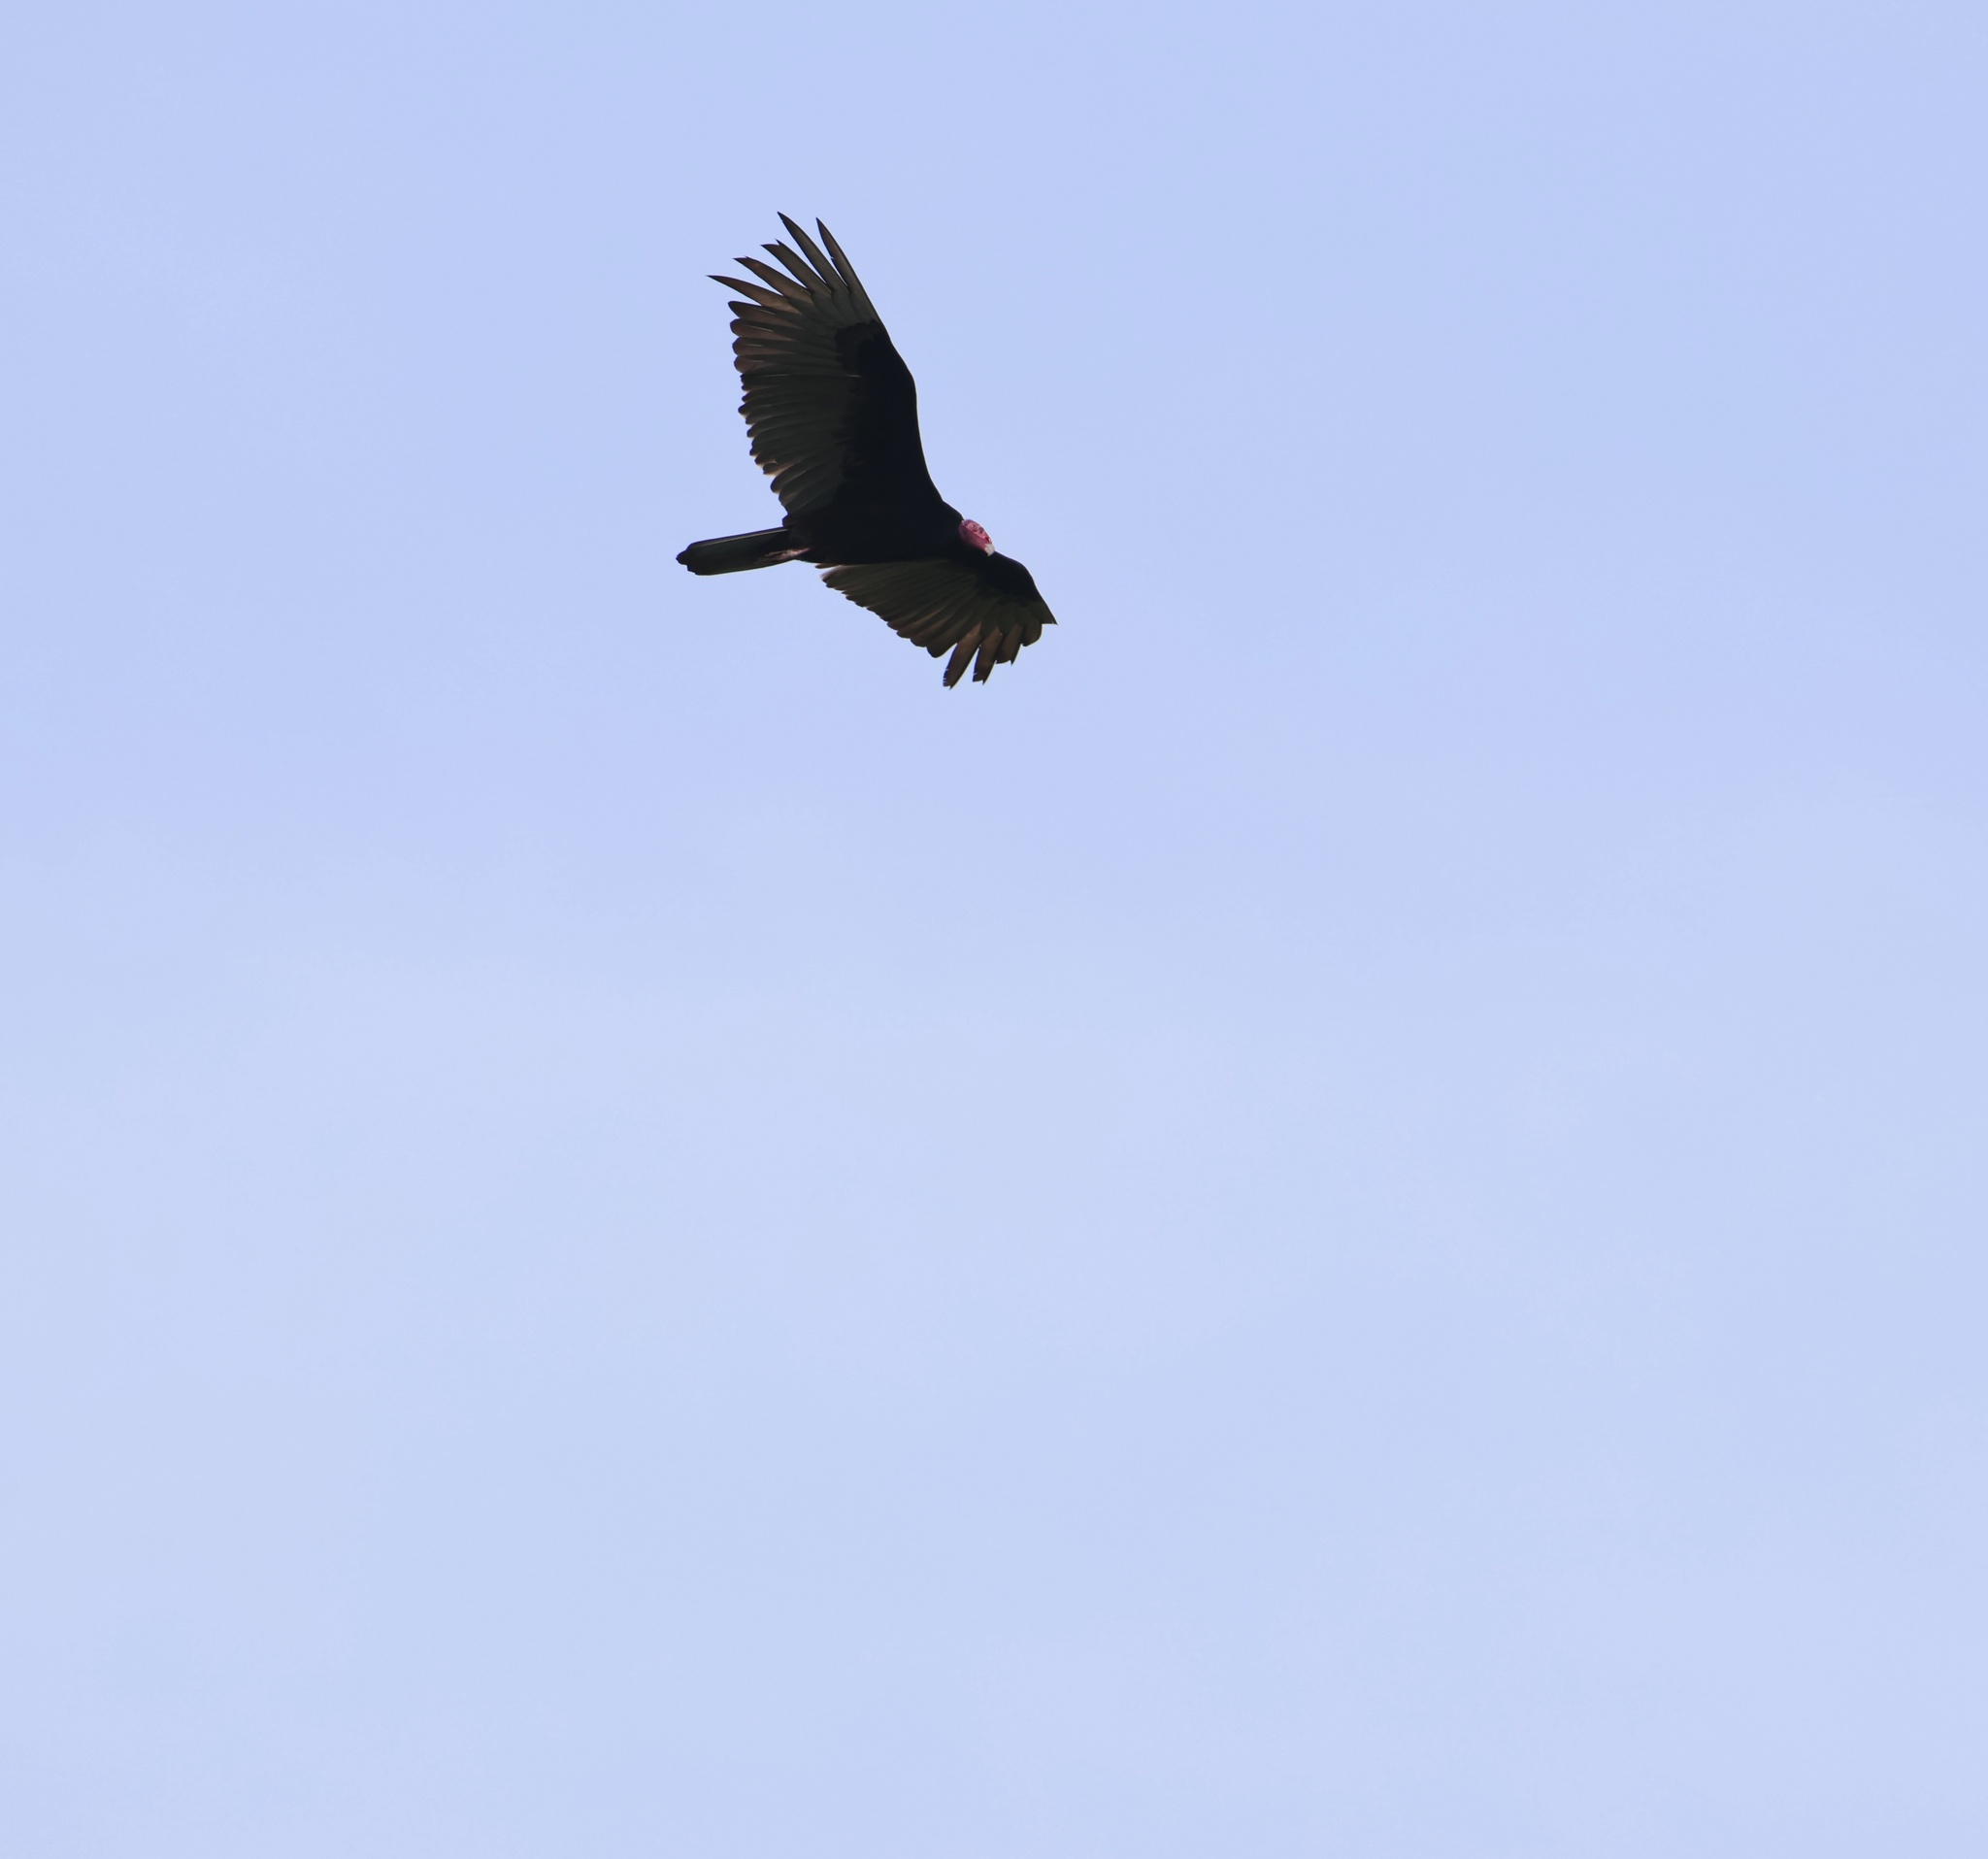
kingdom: Animalia
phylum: Chordata
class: Aves
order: Accipitriformes
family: Cathartidae
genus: Cathartes
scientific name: Cathartes aura
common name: Turkey vulture
